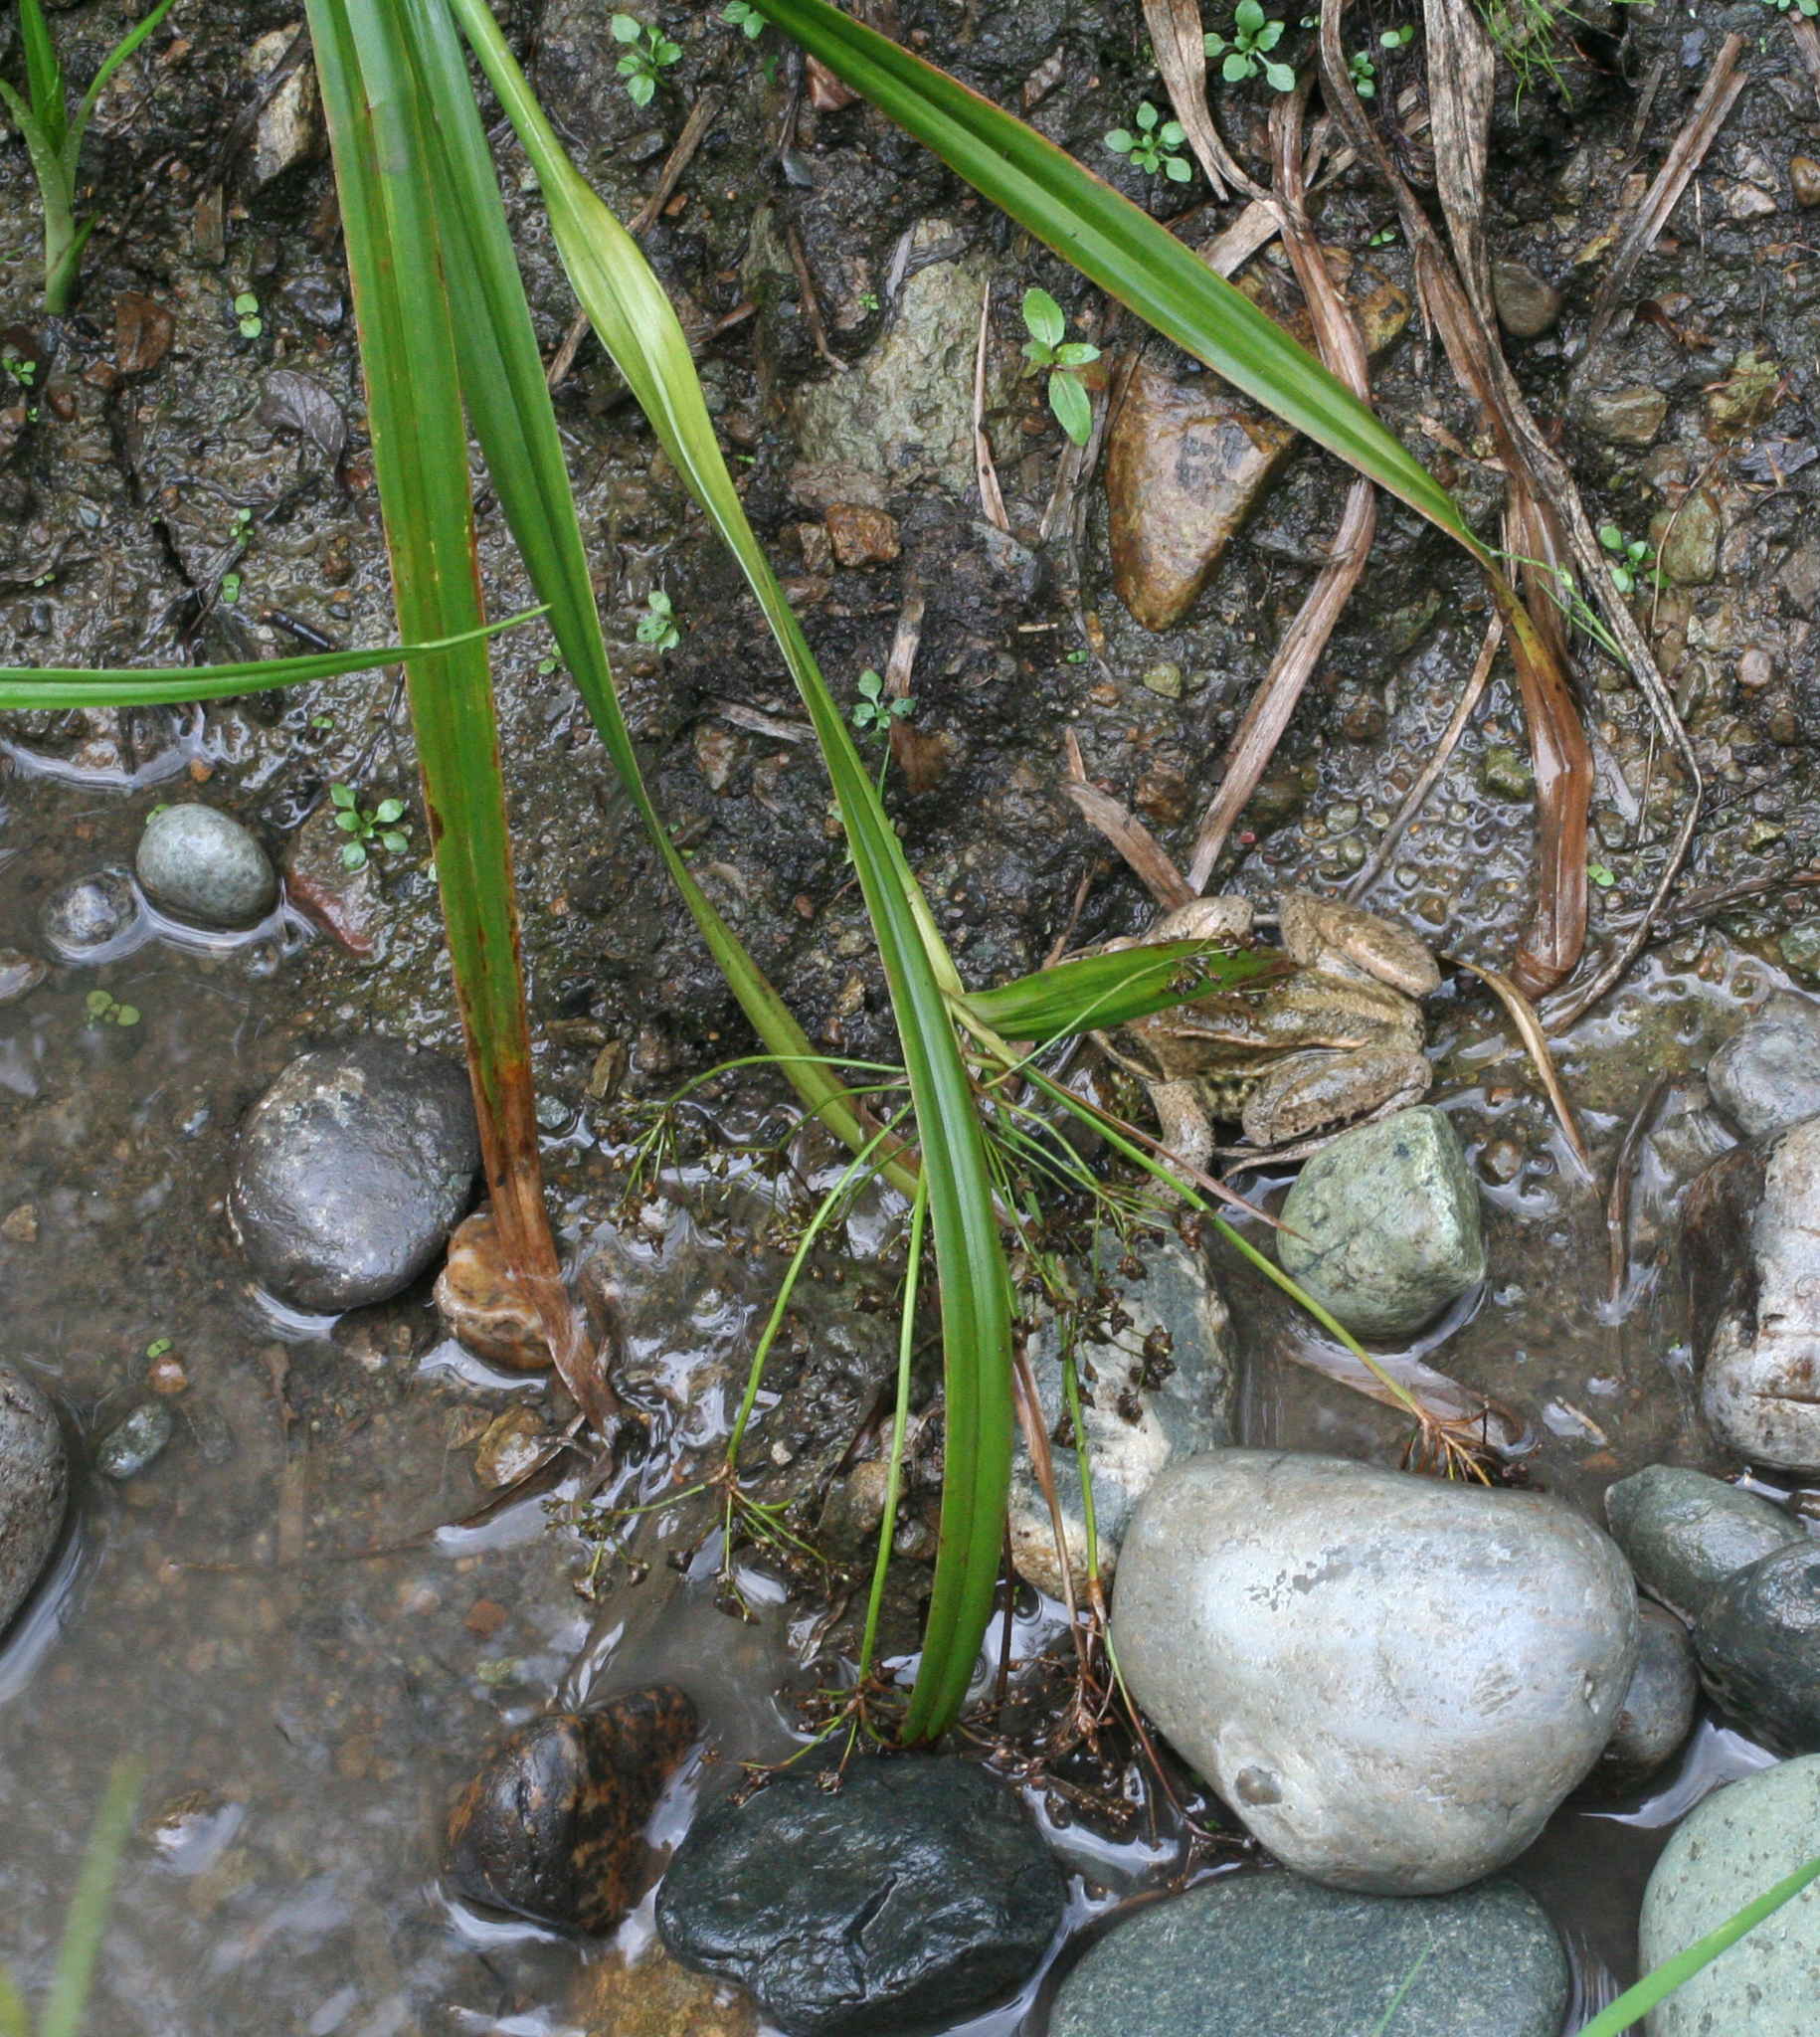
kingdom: Plantae
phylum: Tracheophyta
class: Liliopsida
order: Poales
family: Cyperaceae
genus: Scirpus
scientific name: Scirpus radicans
